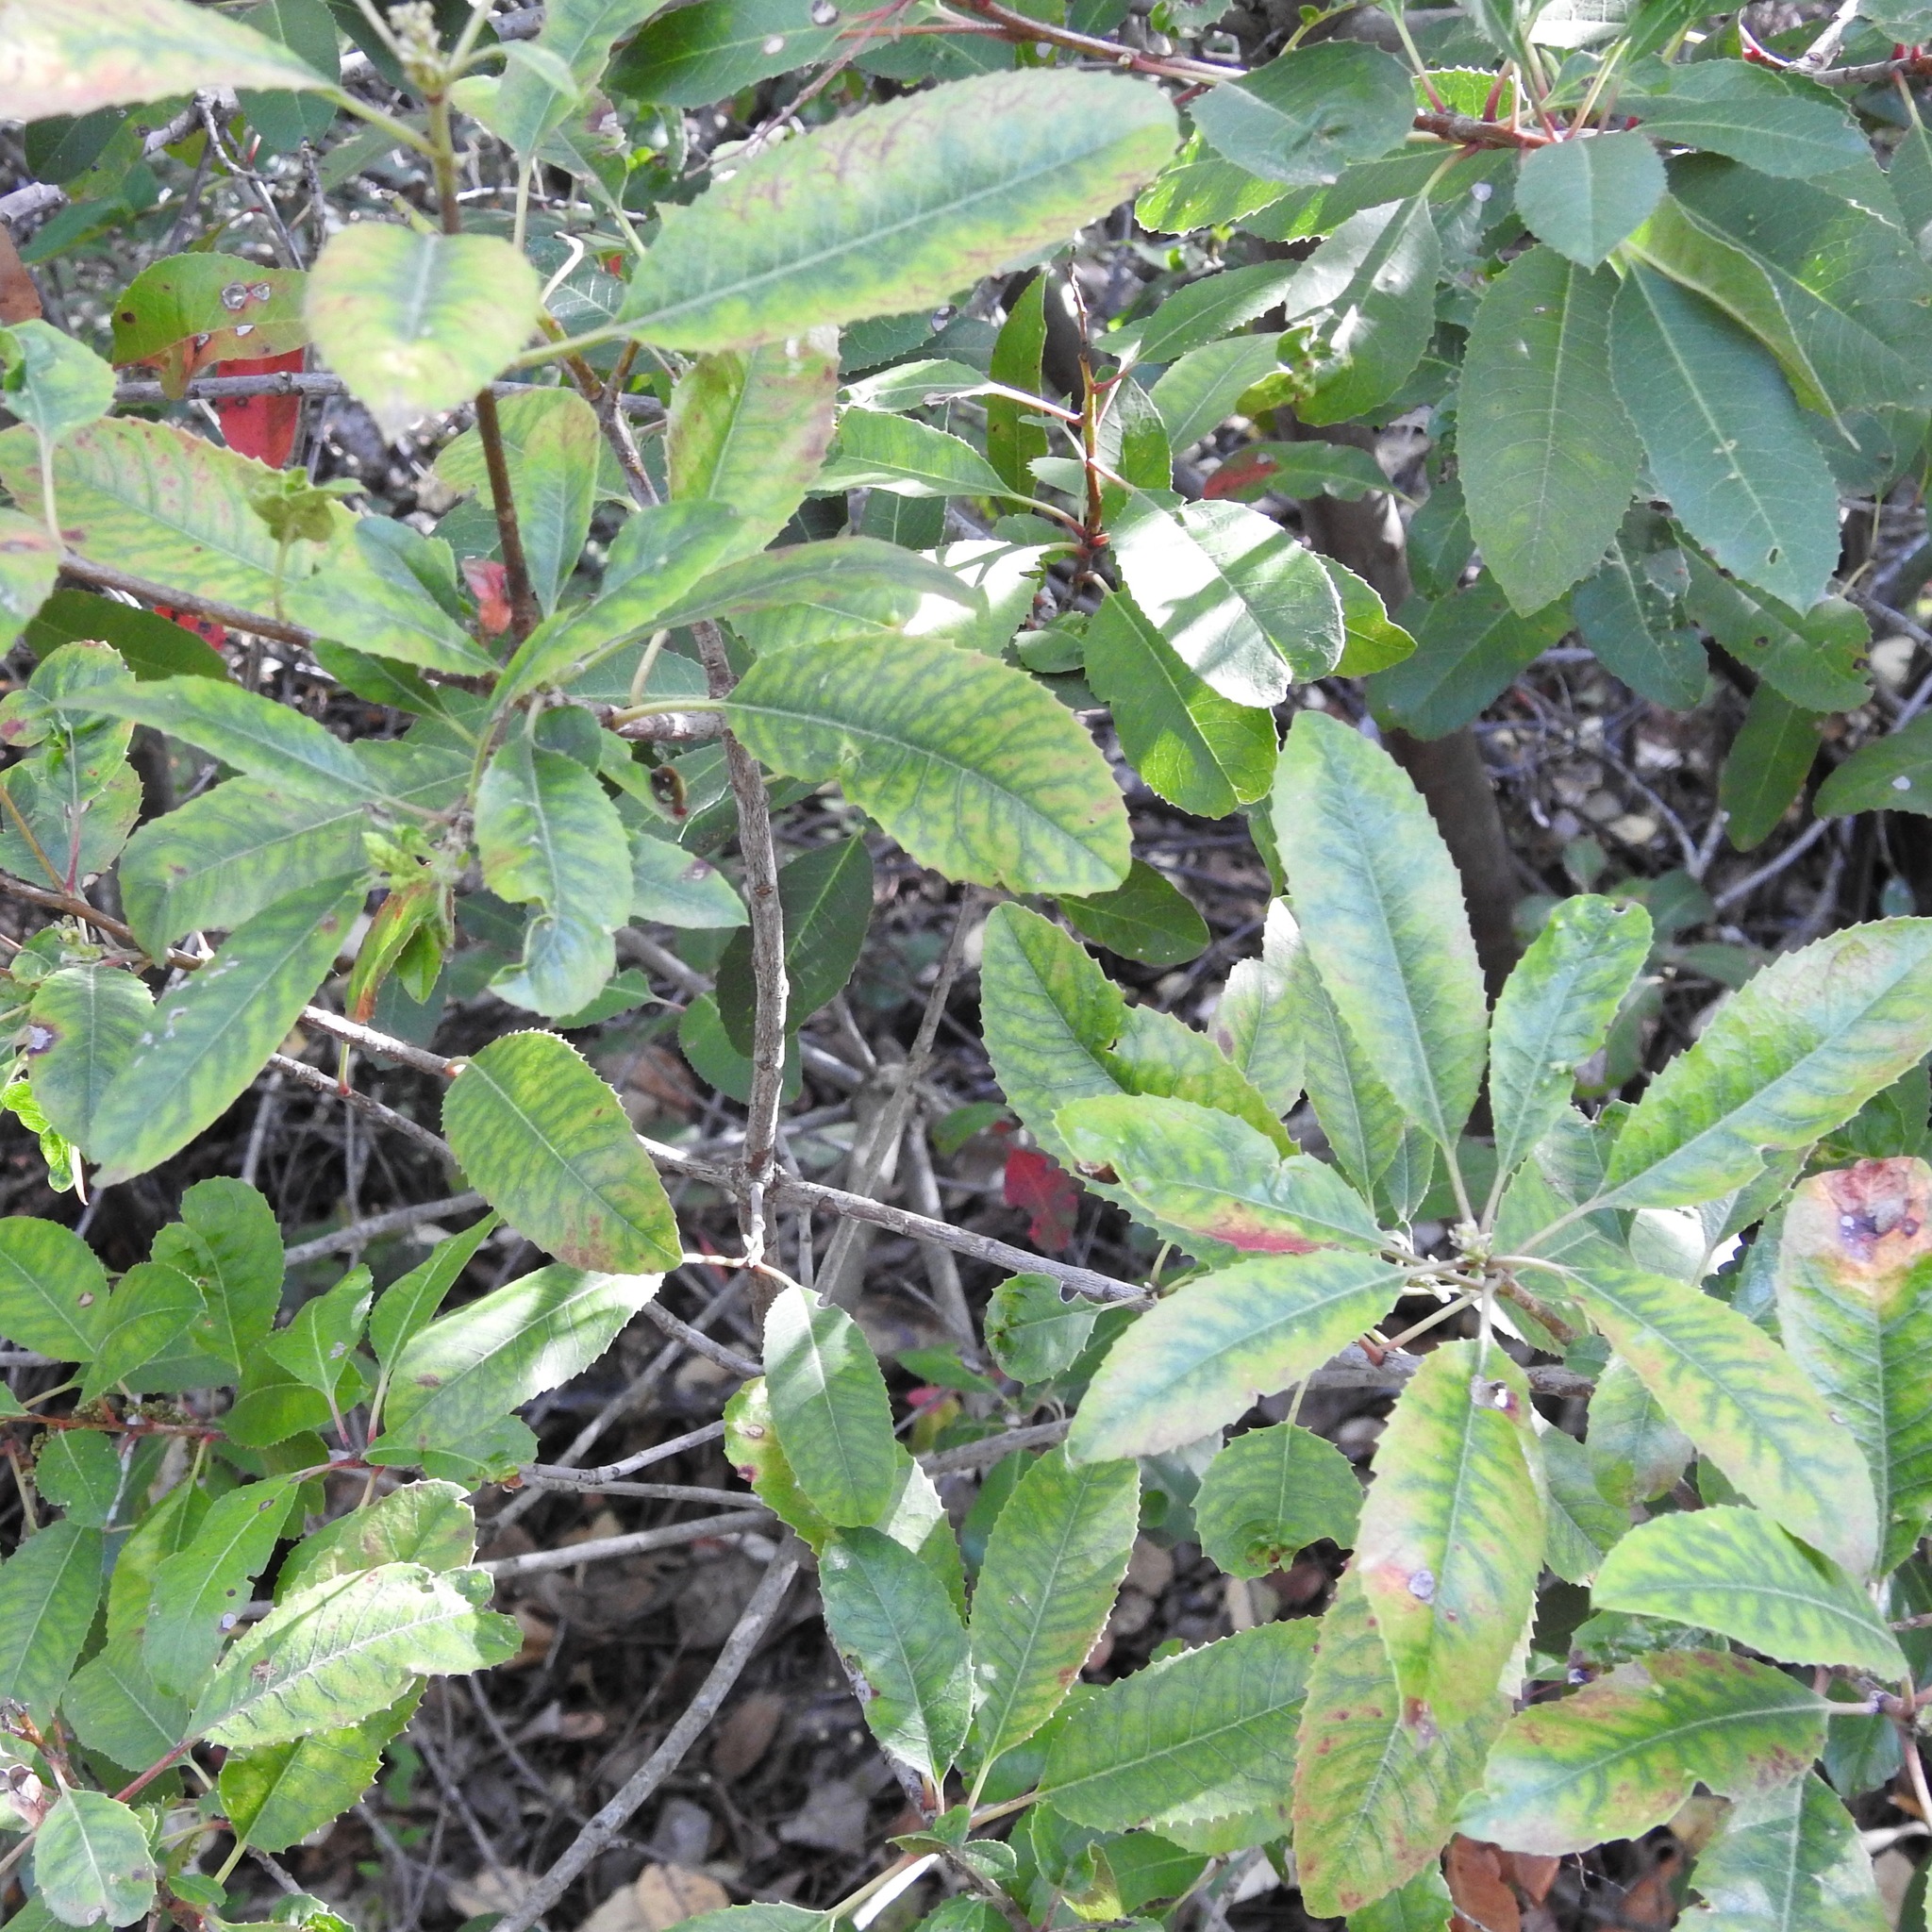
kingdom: Plantae
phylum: Tracheophyta
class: Magnoliopsida
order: Rosales
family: Rosaceae
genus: Heteromeles
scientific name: Heteromeles arbutifolia
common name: California-holly
